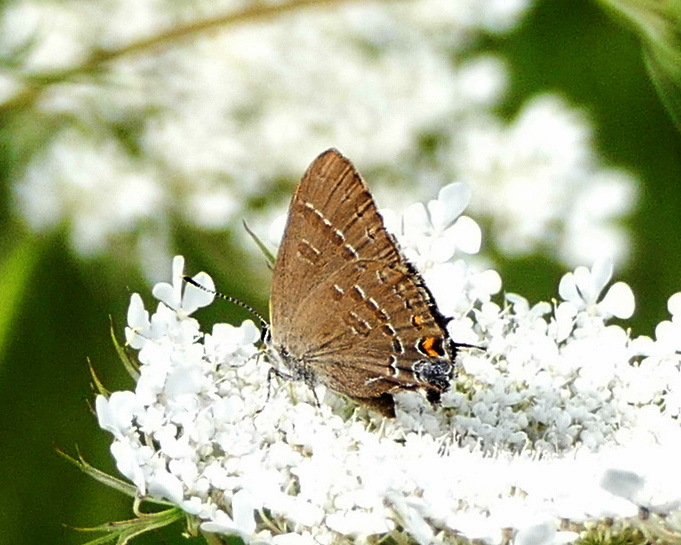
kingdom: Animalia
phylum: Arthropoda
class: Insecta
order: Lepidoptera
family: Lycaenidae
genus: Satyrium
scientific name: Satyrium calanus
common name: Banded hairstreak
